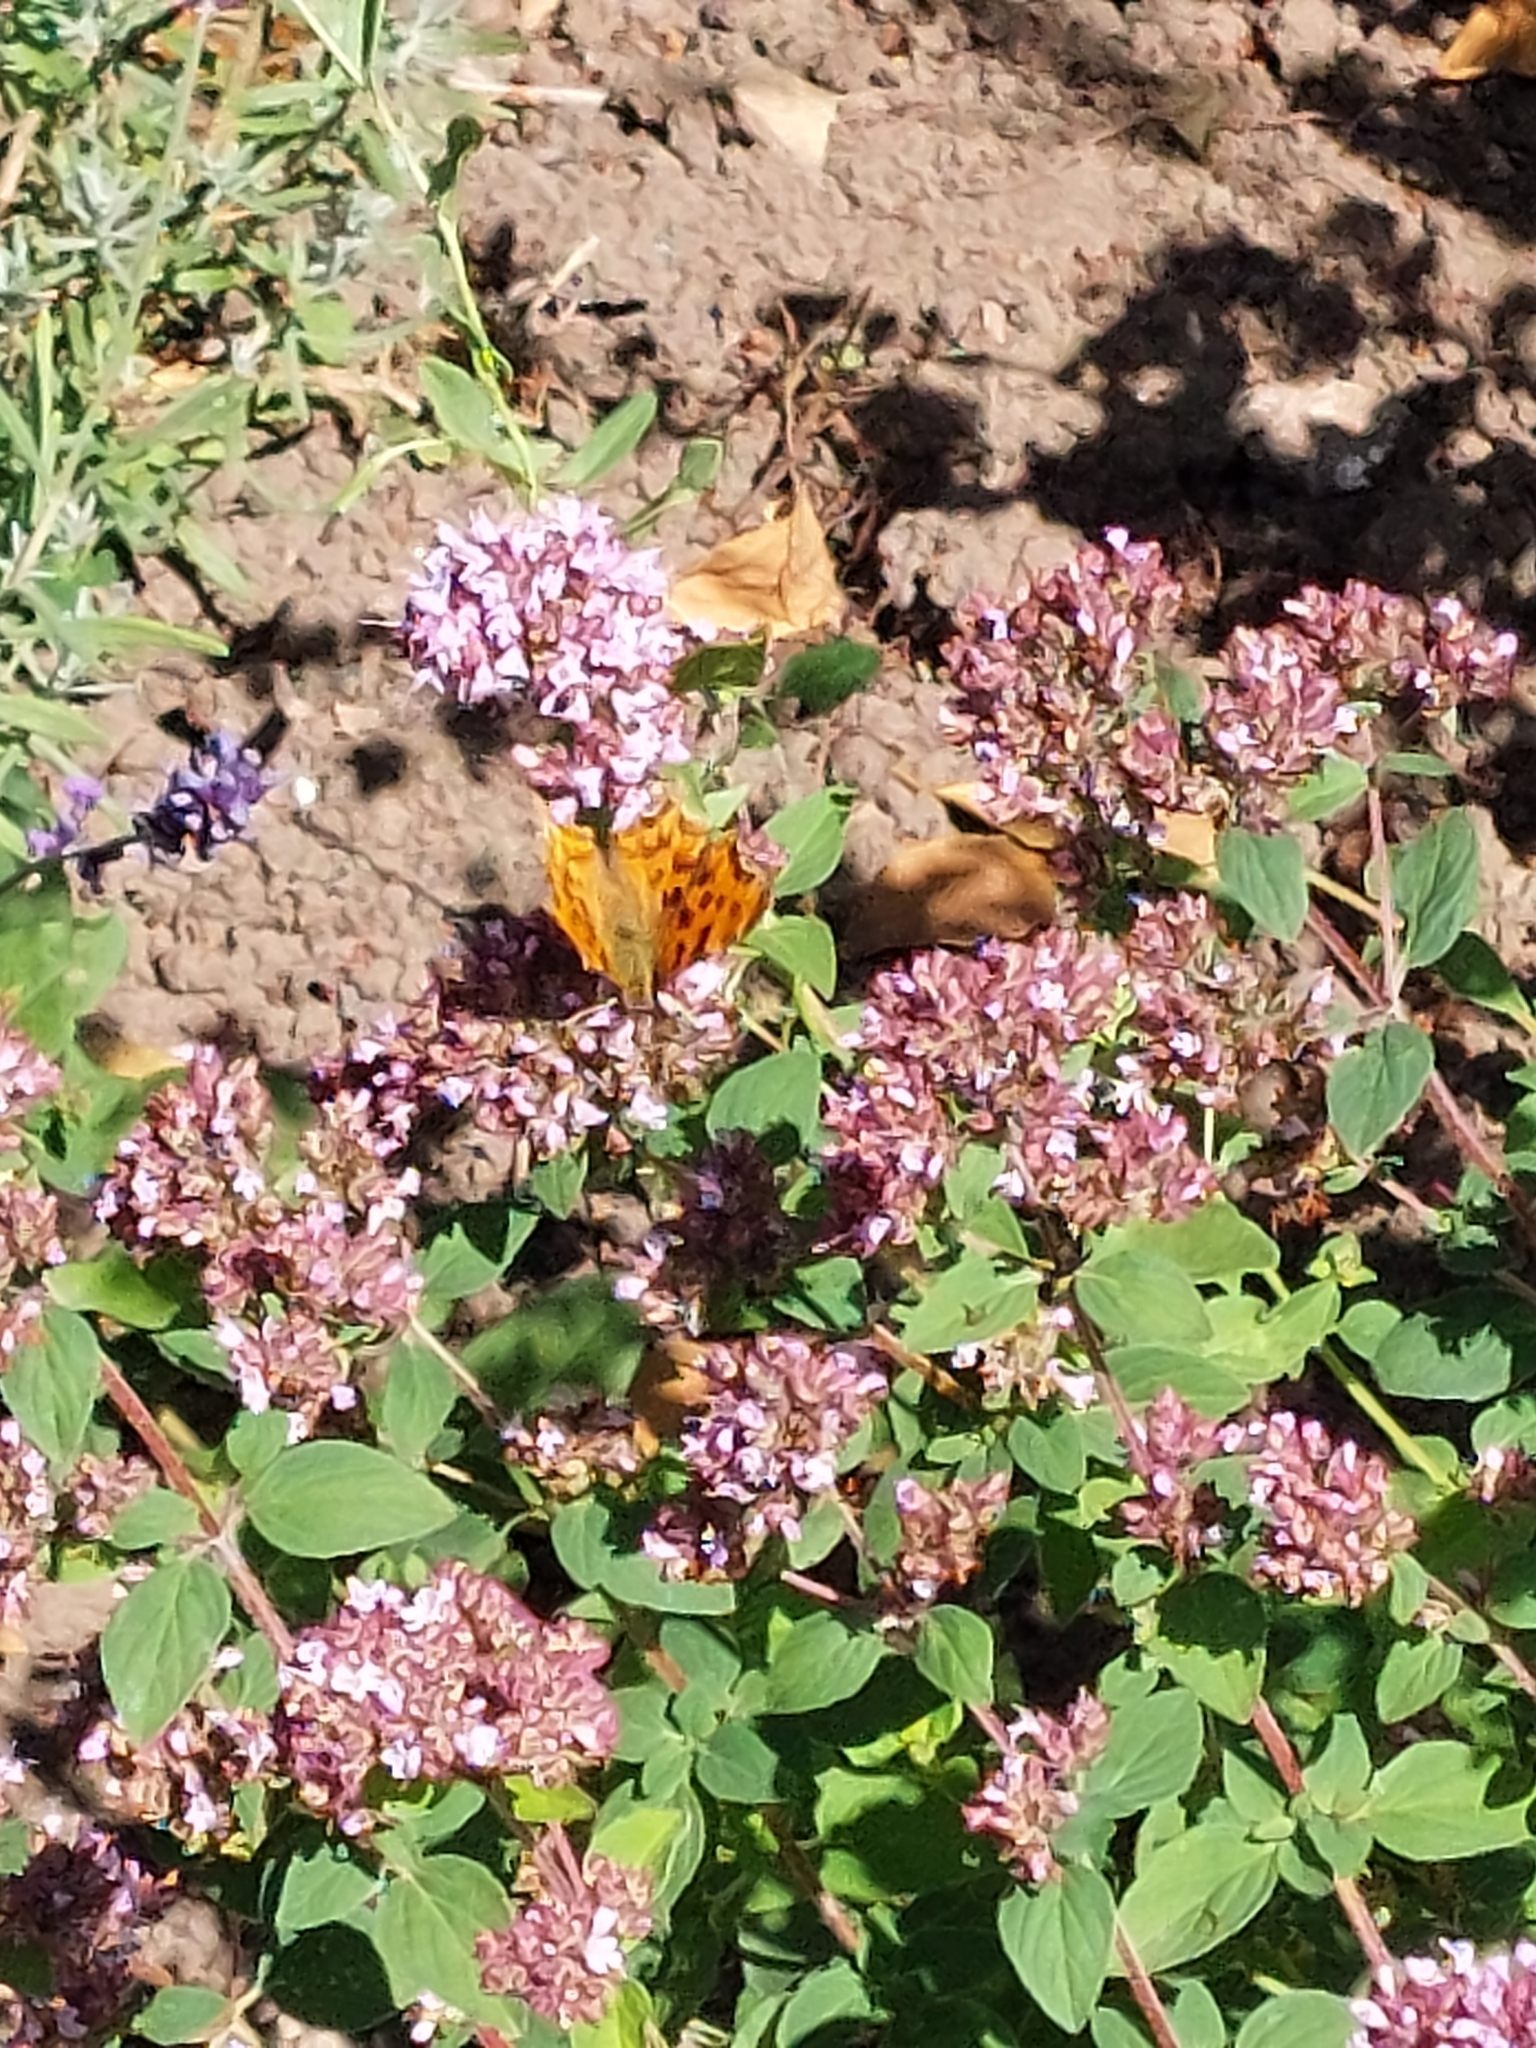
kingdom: Animalia
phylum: Arthropoda
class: Insecta
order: Lepidoptera
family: Nymphalidae
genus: Polygonia
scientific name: Polygonia c-album
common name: Comma
